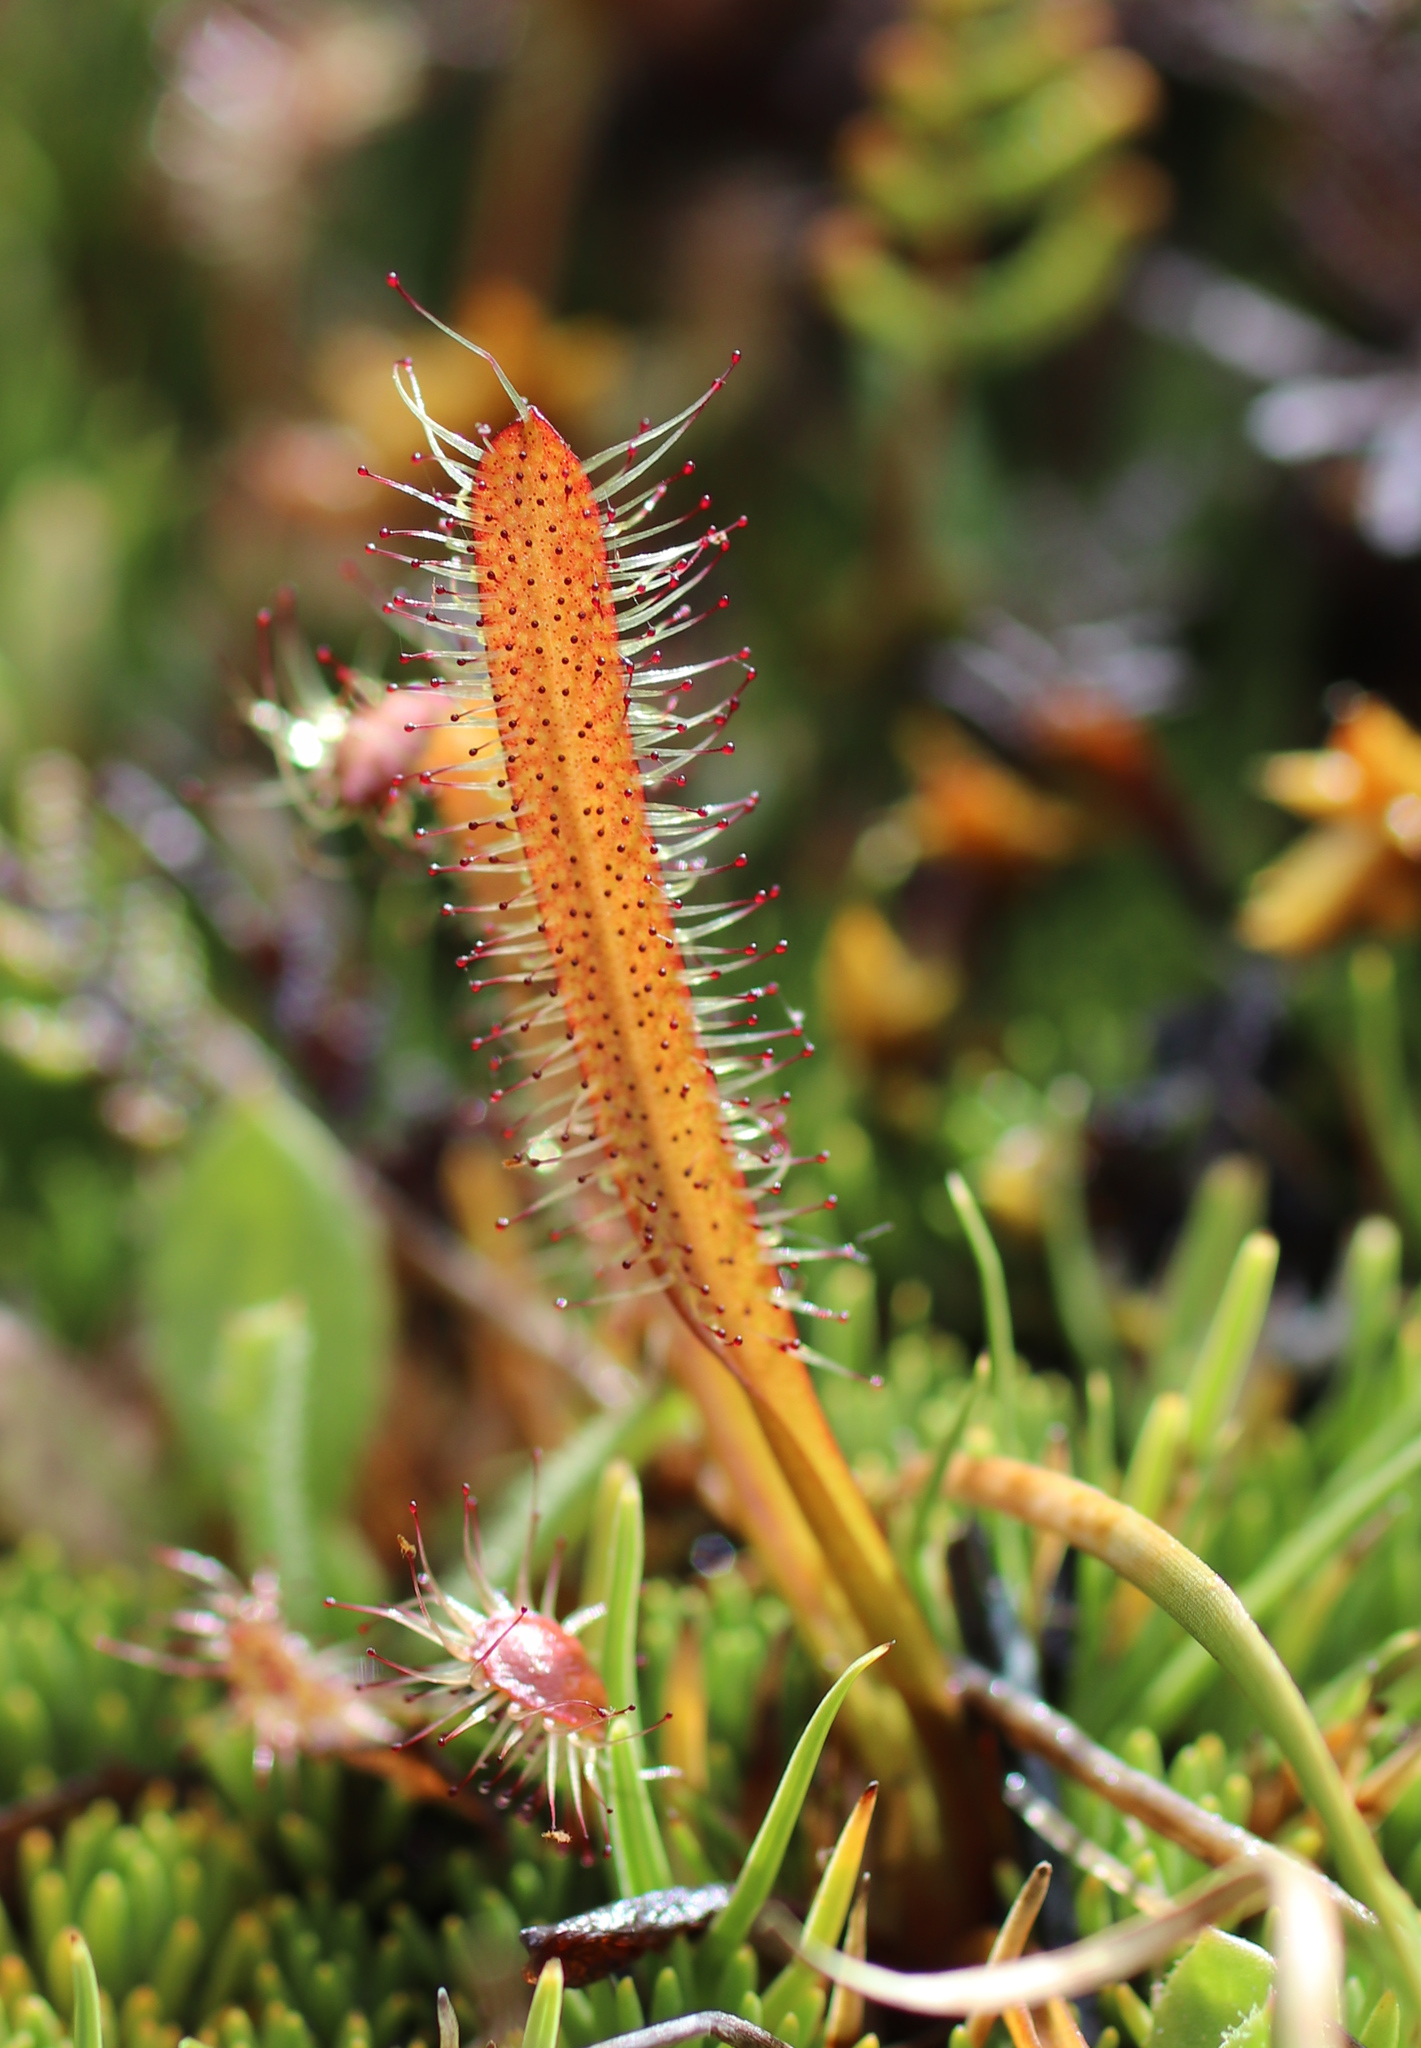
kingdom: Plantae
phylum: Tracheophyta
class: Magnoliopsida
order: Caryophyllales
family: Droseraceae
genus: Drosera
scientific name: Drosera arcturi
